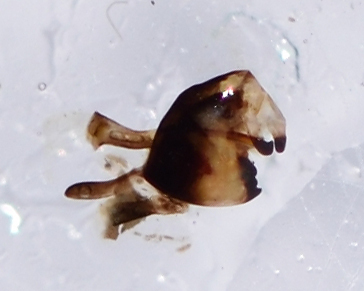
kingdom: Animalia
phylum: Arthropoda
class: Insecta
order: Lepidoptera
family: Pieridae
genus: Leptidea
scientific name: Leptidea sinapis
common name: Wood white
